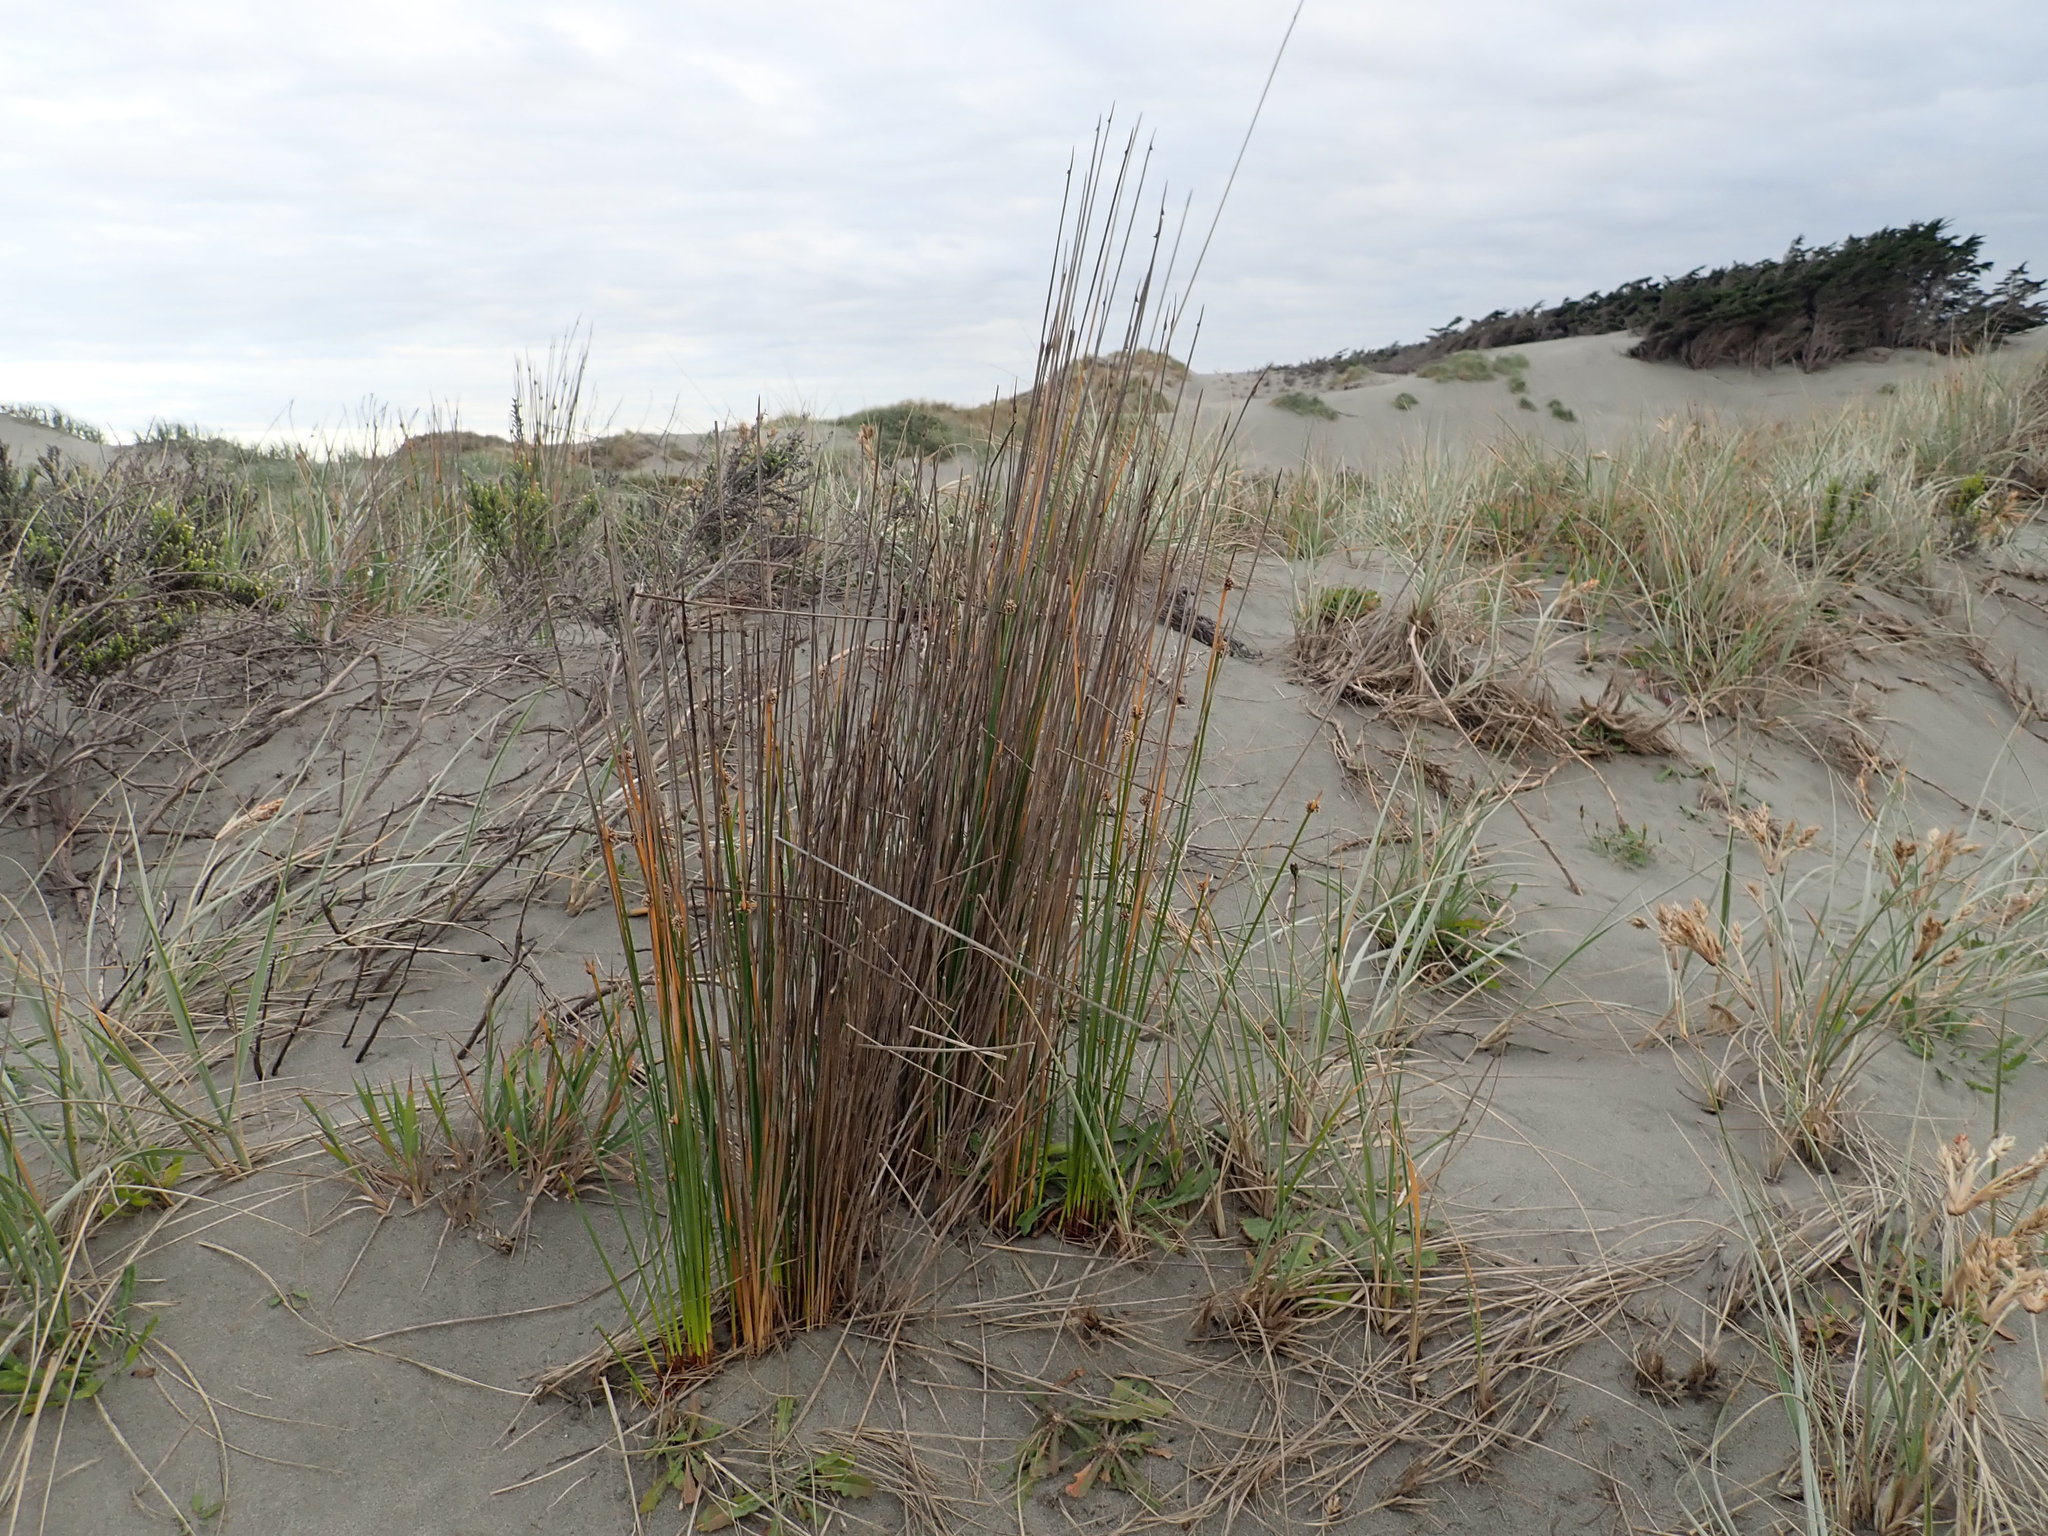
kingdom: Plantae
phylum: Tracheophyta
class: Liliopsida
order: Poales
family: Cyperaceae
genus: Ficinia
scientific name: Ficinia nodosa
